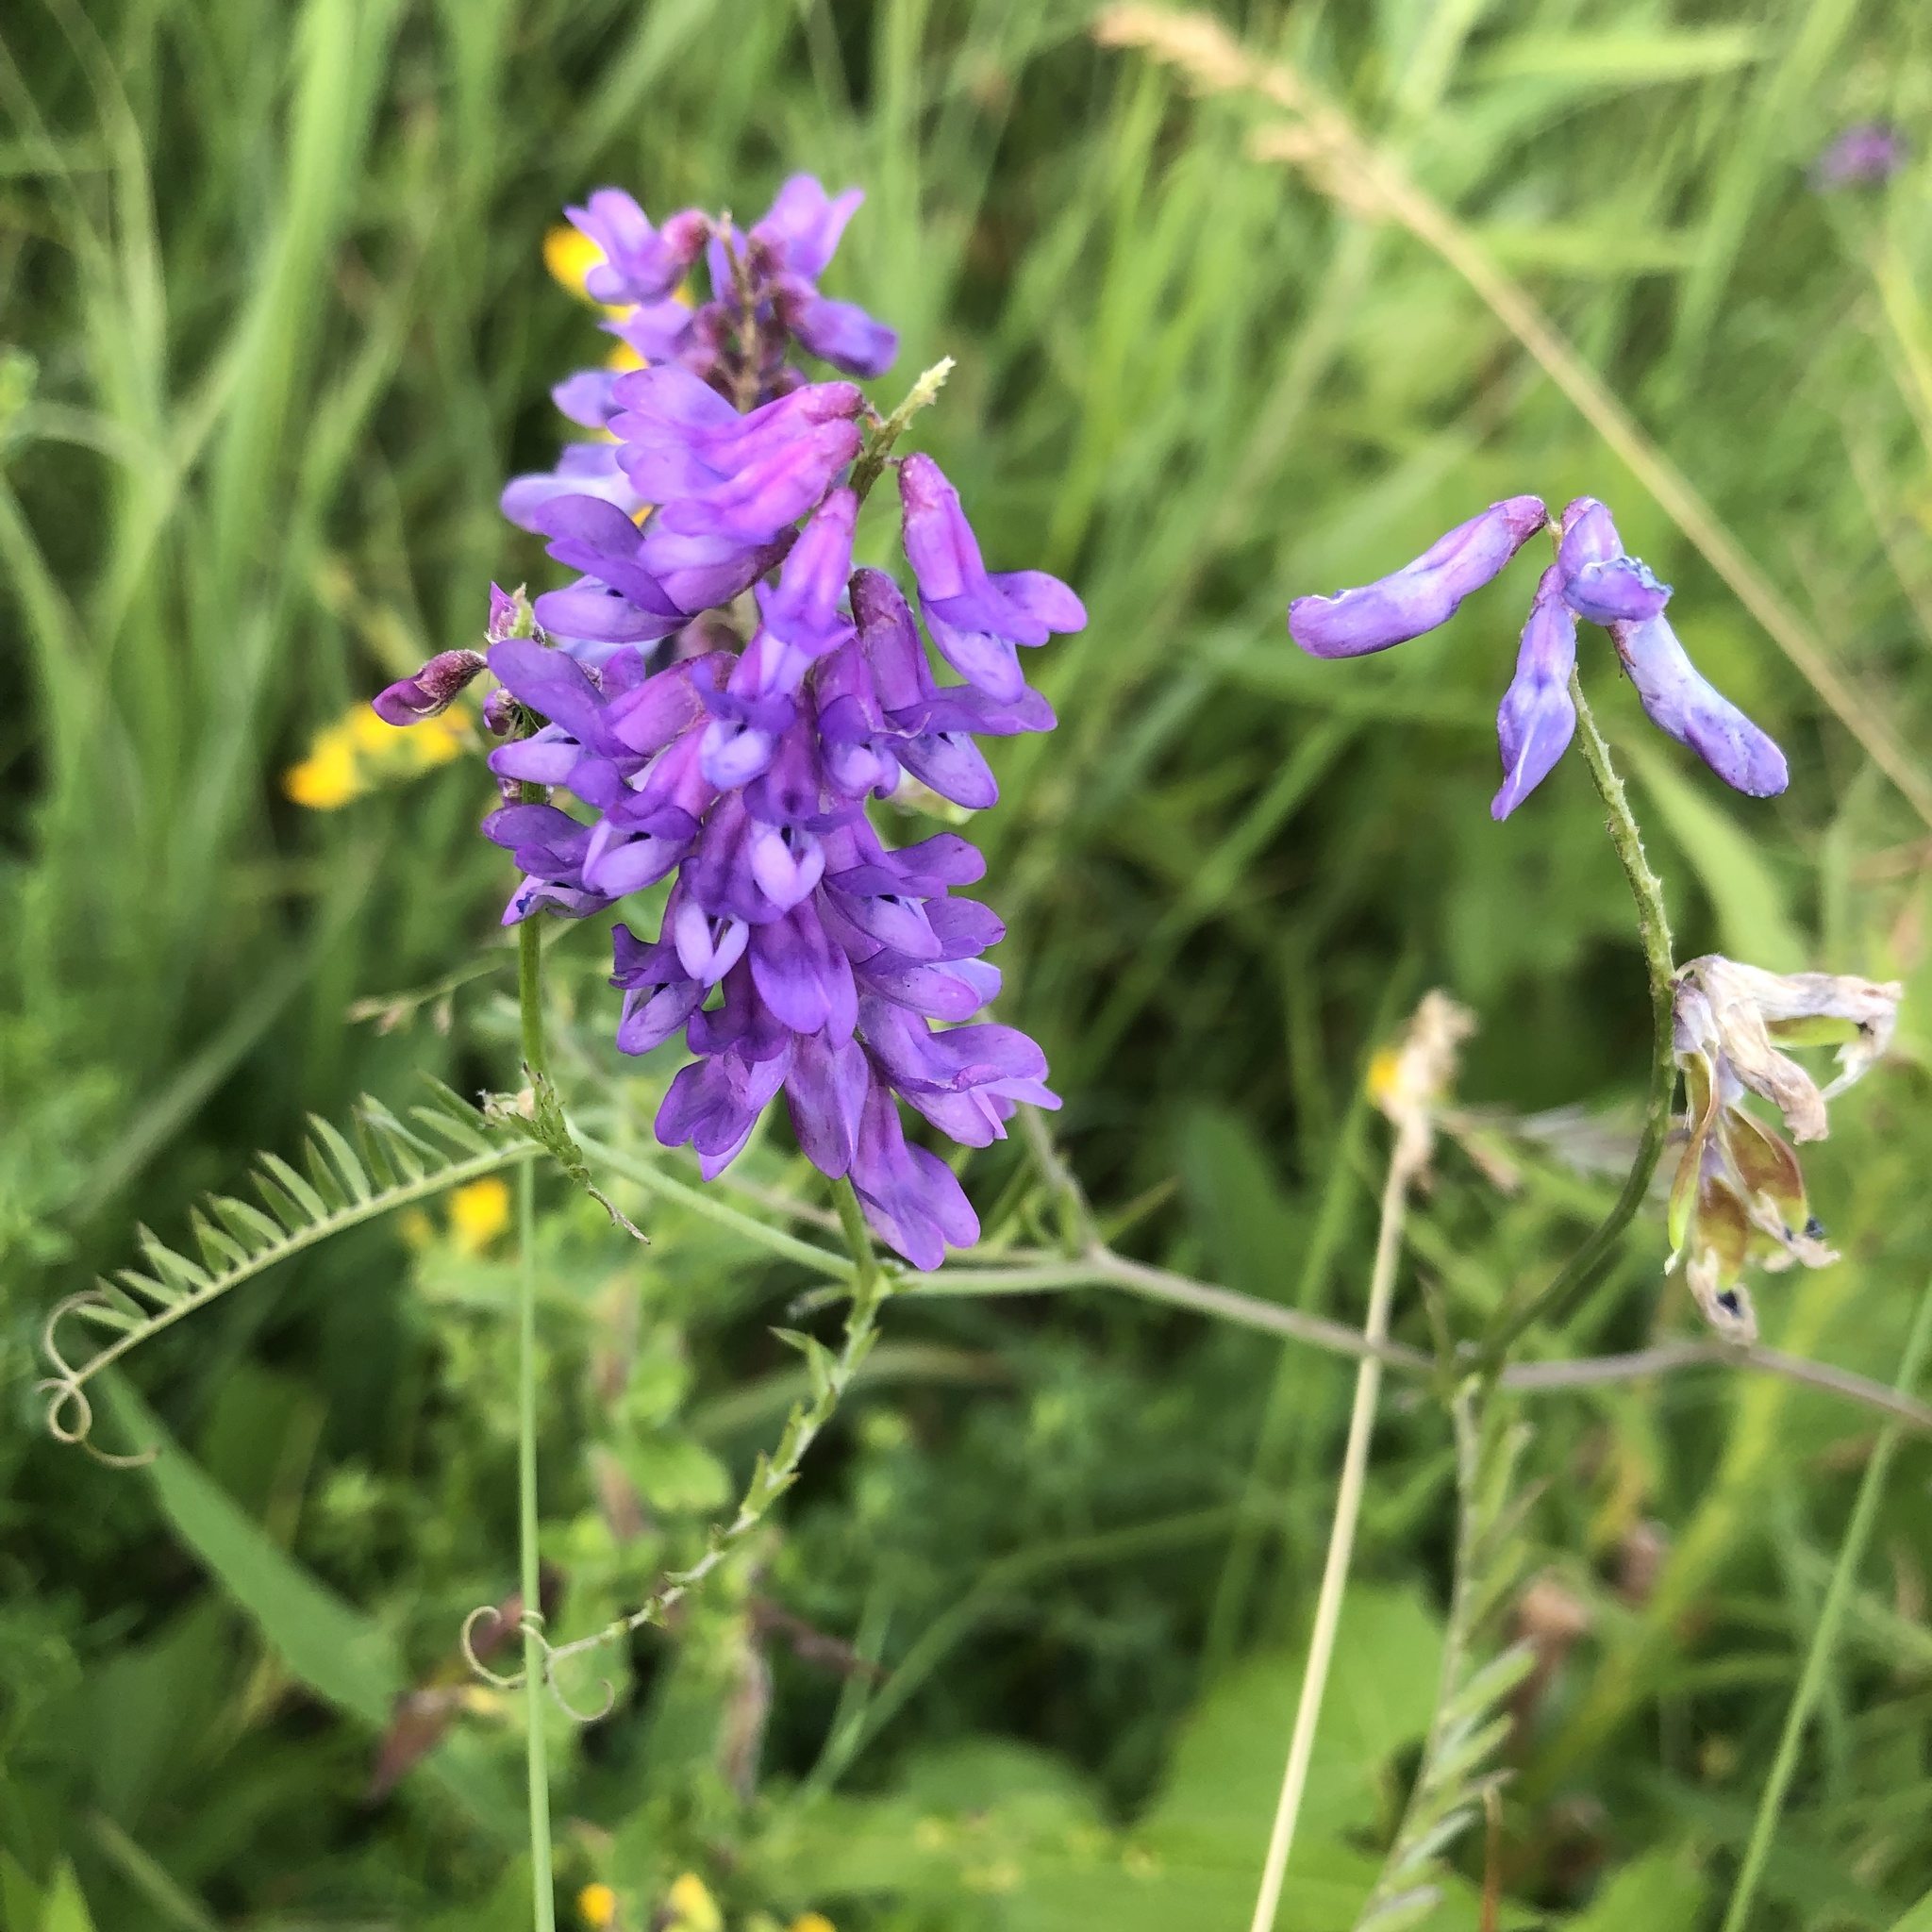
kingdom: Plantae
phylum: Tracheophyta
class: Magnoliopsida
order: Fabales
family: Fabaceae
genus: Vicia
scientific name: Vicia cracca
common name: Bird vetch
